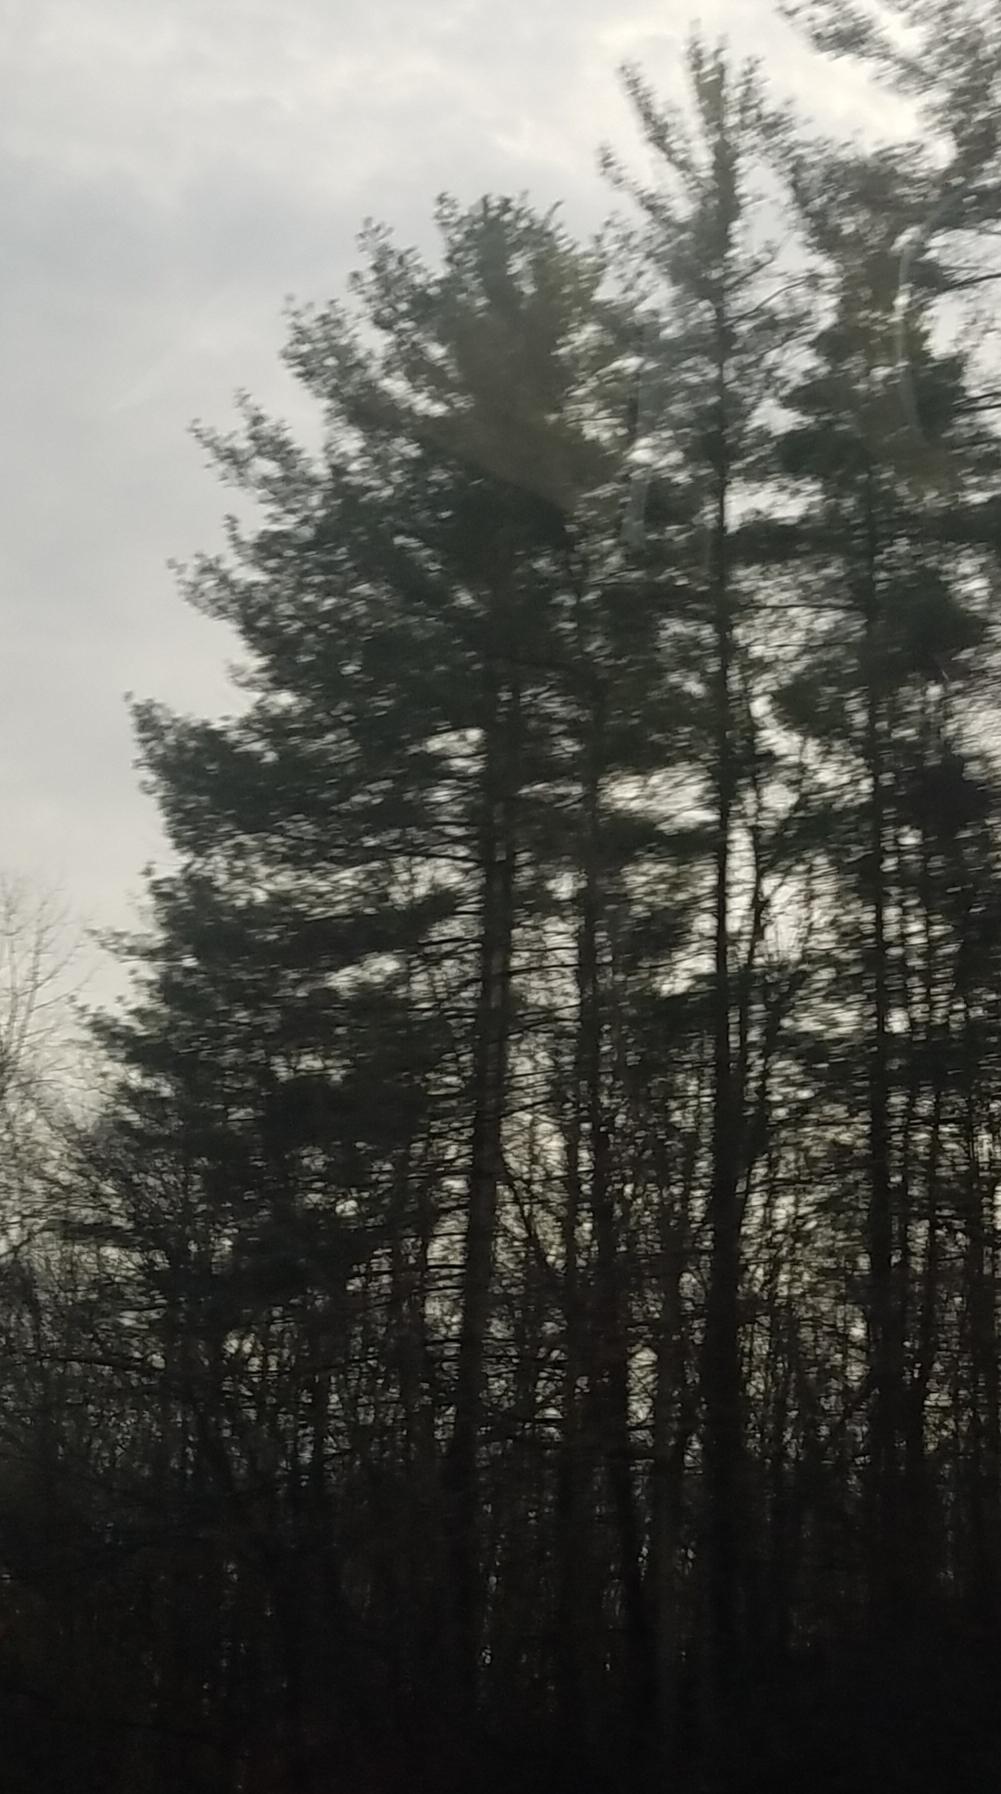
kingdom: Plantae
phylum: Tracheophyta
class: Pinopsida
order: Pinales
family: Pinaceae
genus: Pinus
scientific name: Pinus strobus
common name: Weymouth pine
